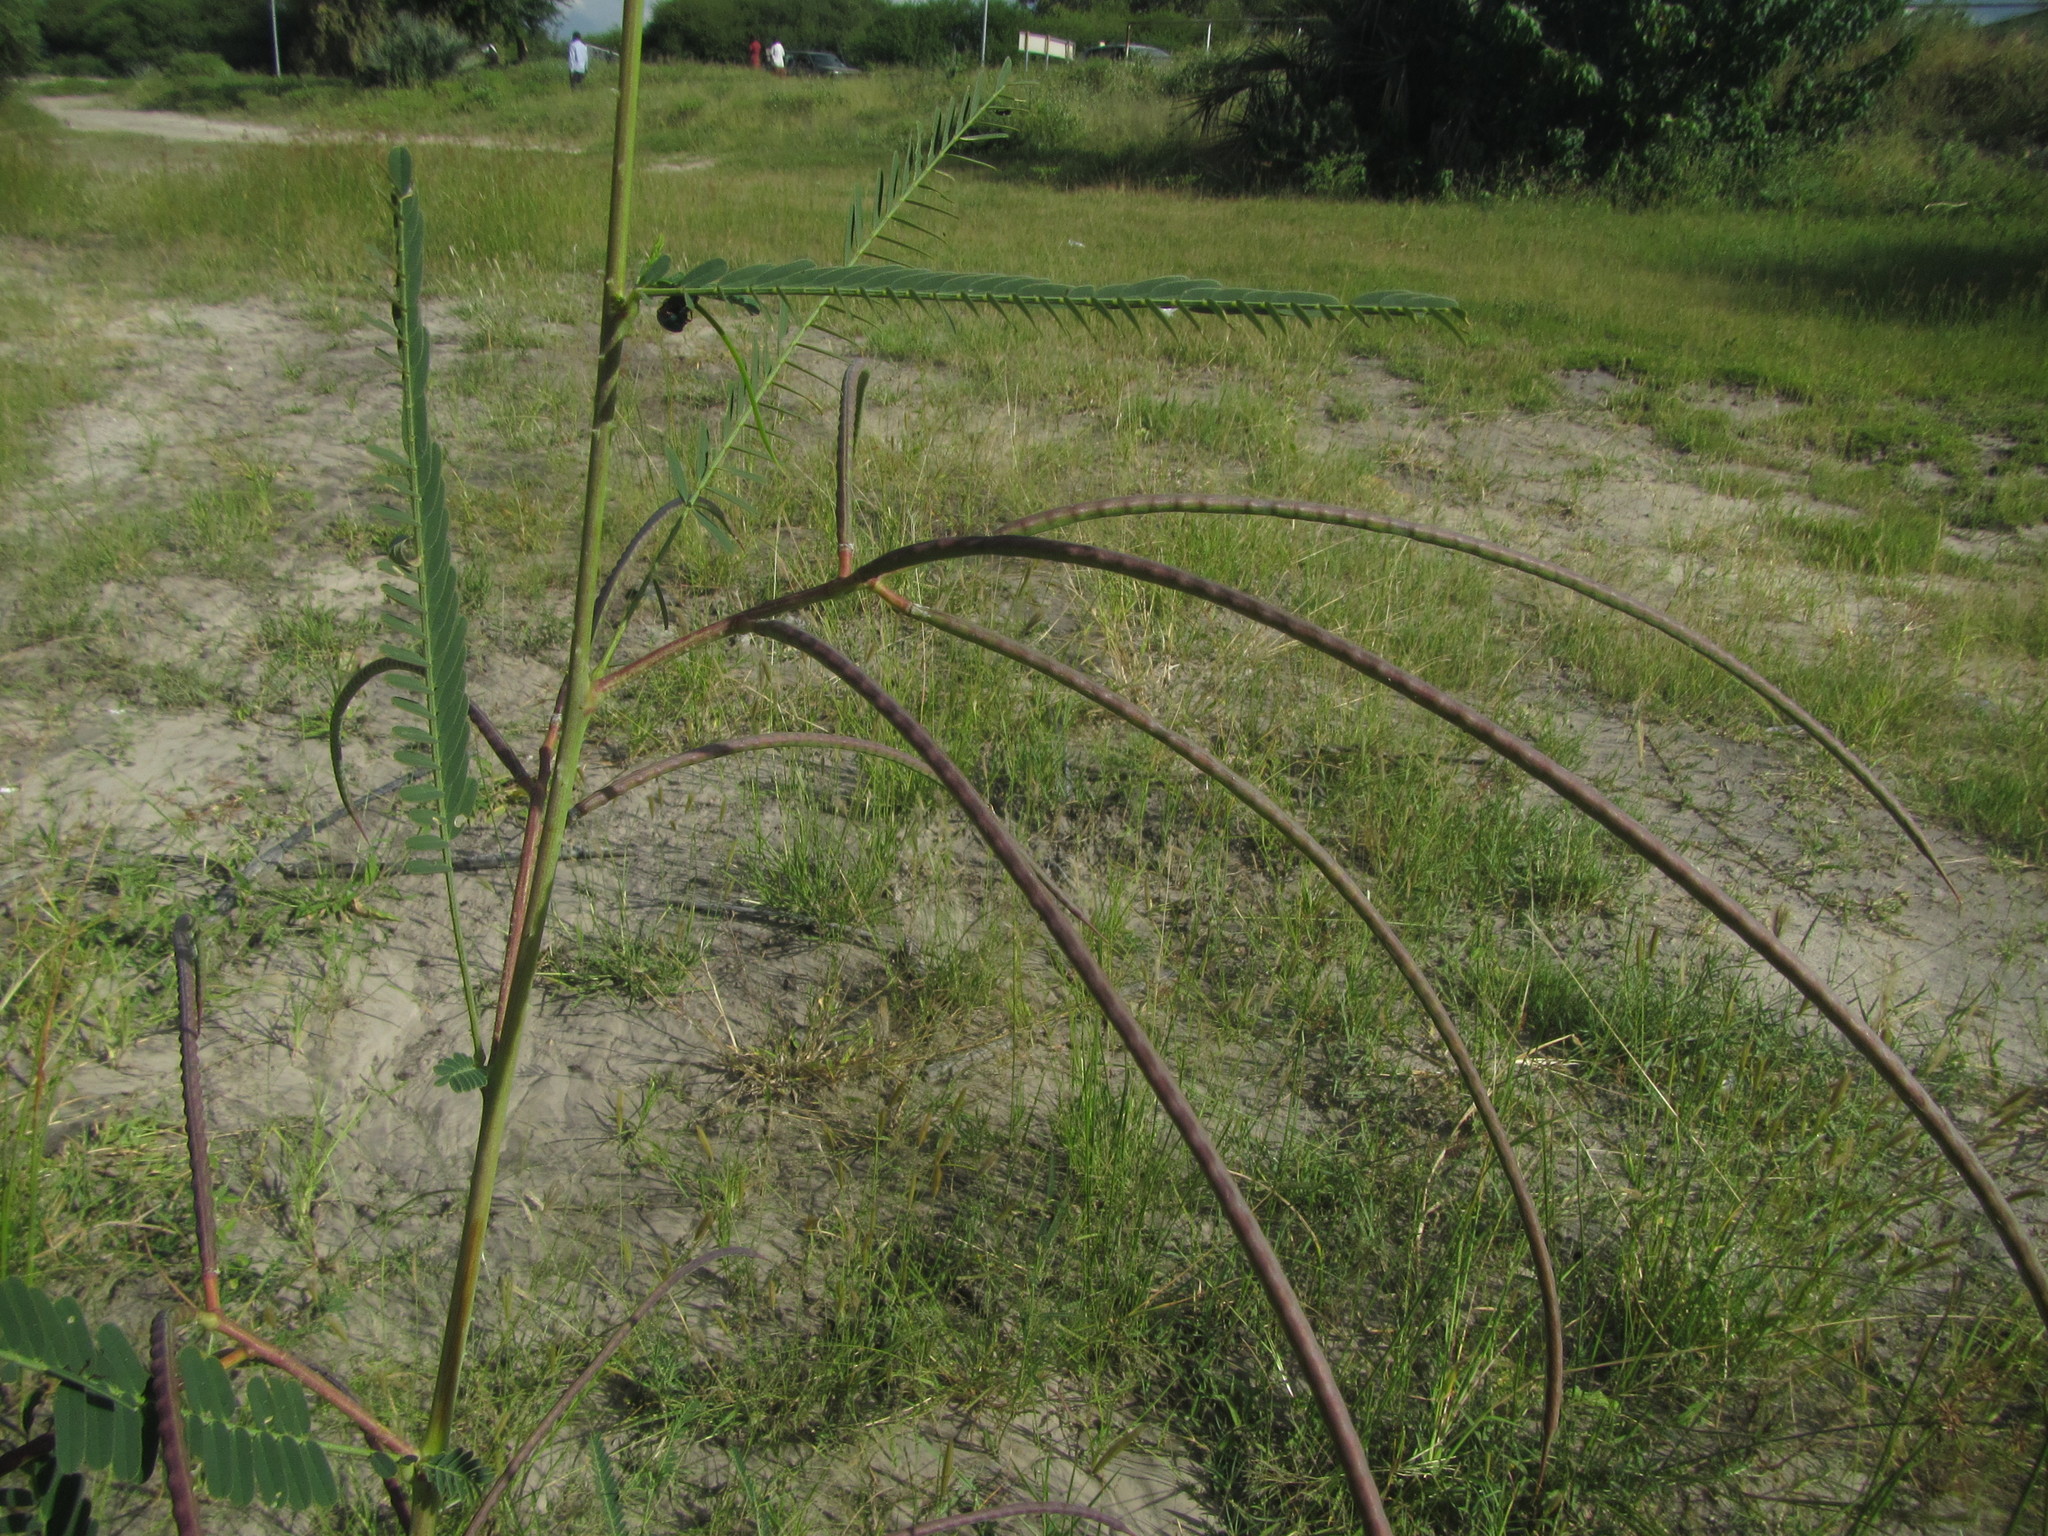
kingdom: Plantae
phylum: Tracheophyta
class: Magnoliopsida
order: Fabales
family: Fabaceae
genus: Sesbania
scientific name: Sesbania bispinosa
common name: Sesbania pea
